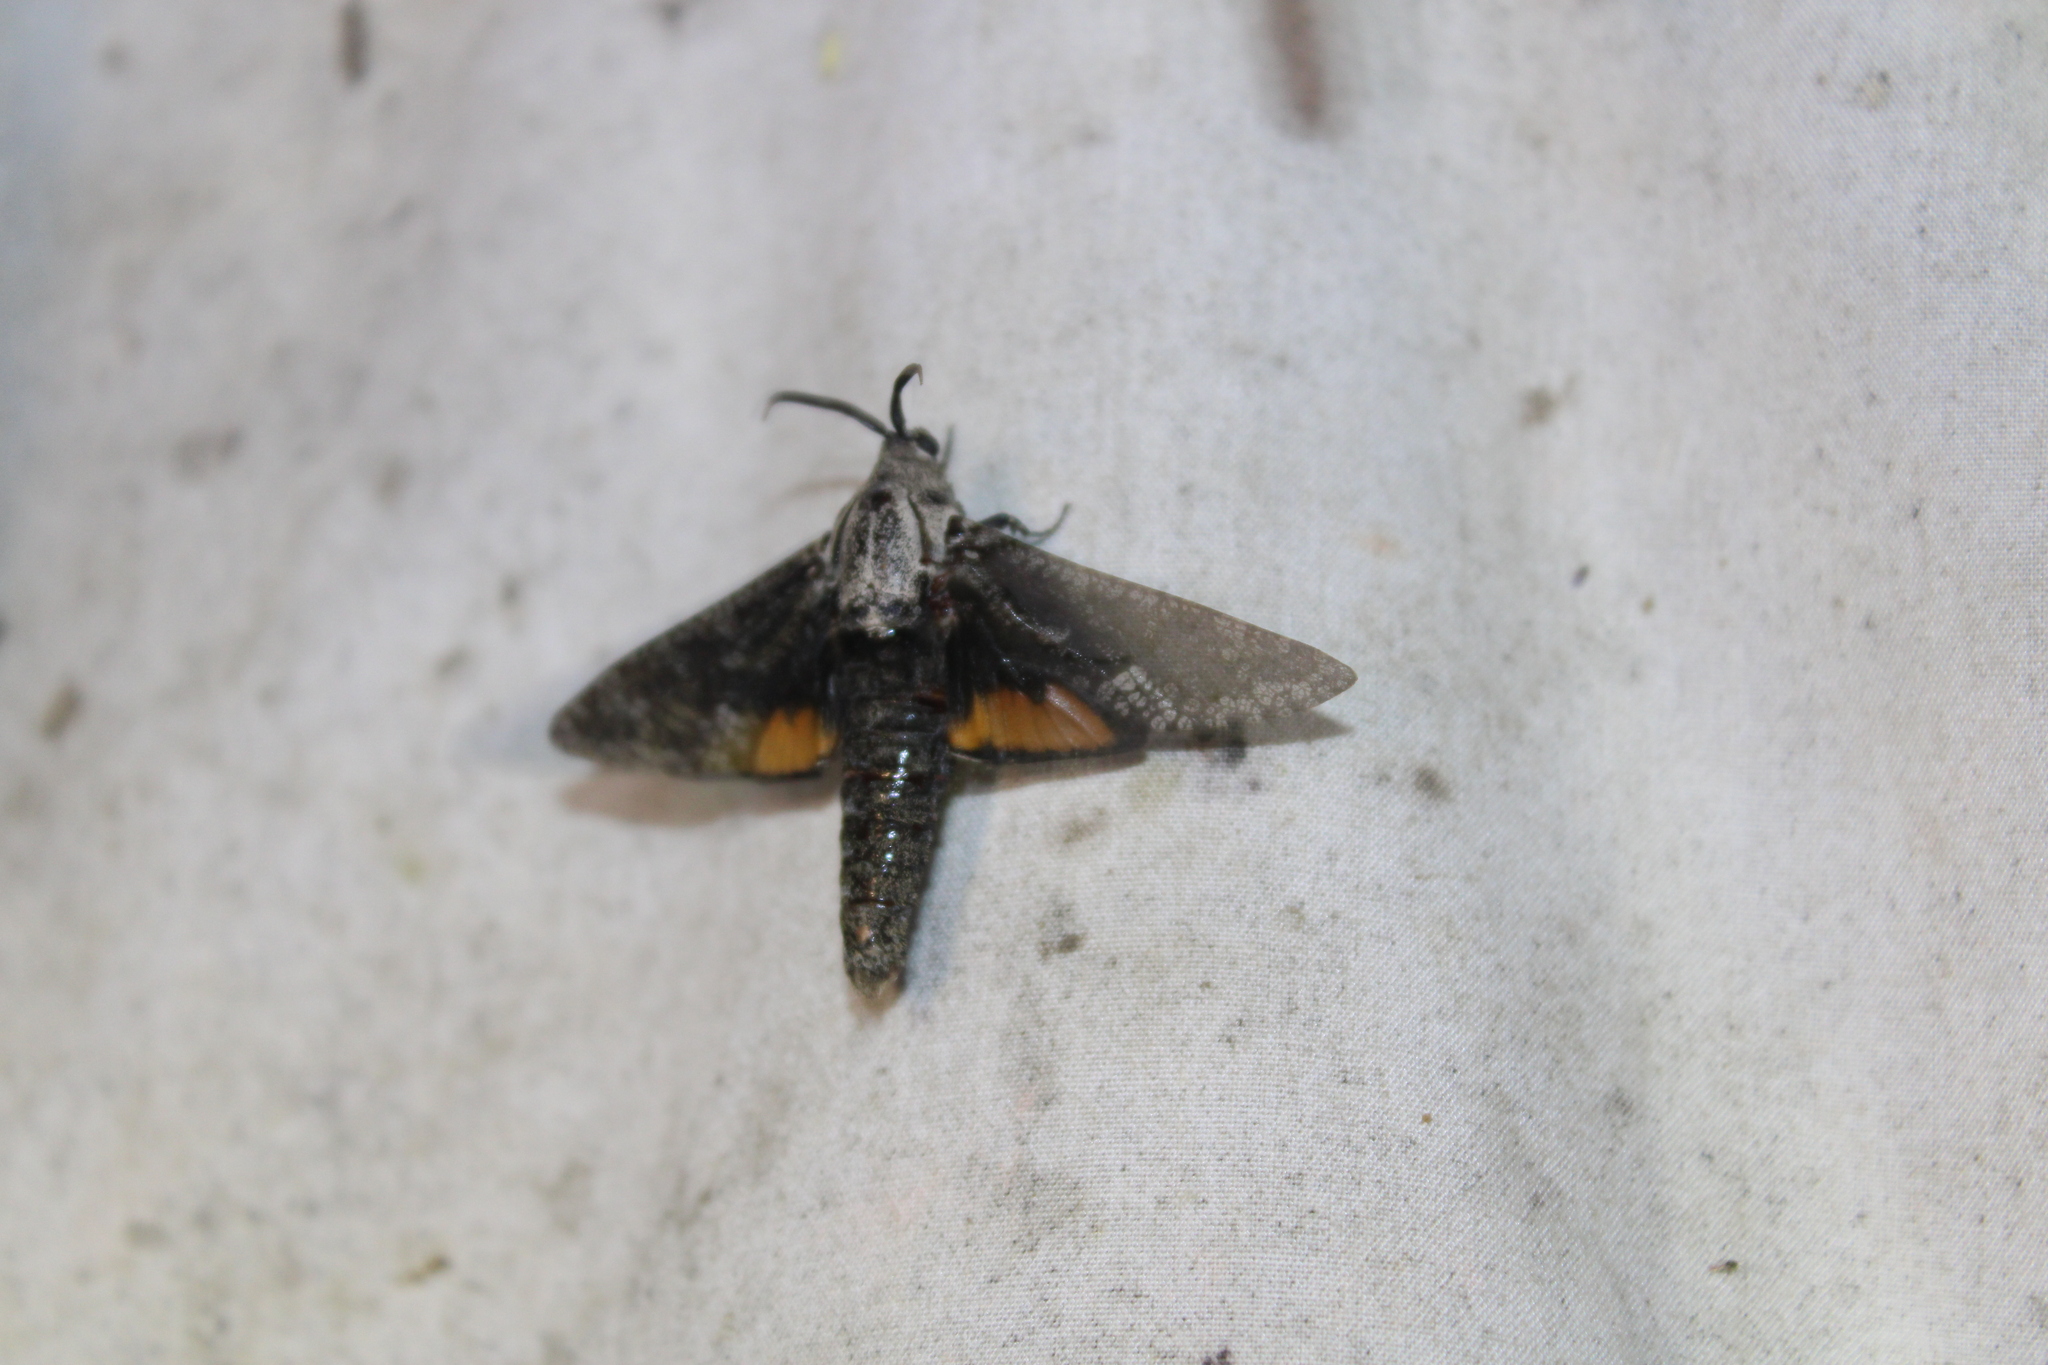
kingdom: Animalia
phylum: Arthropoda
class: Insecta
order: Lepidoptera
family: Cossidae
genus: Prionoxystus
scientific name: Prionoxystus robiniae
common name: Carpenterworm
